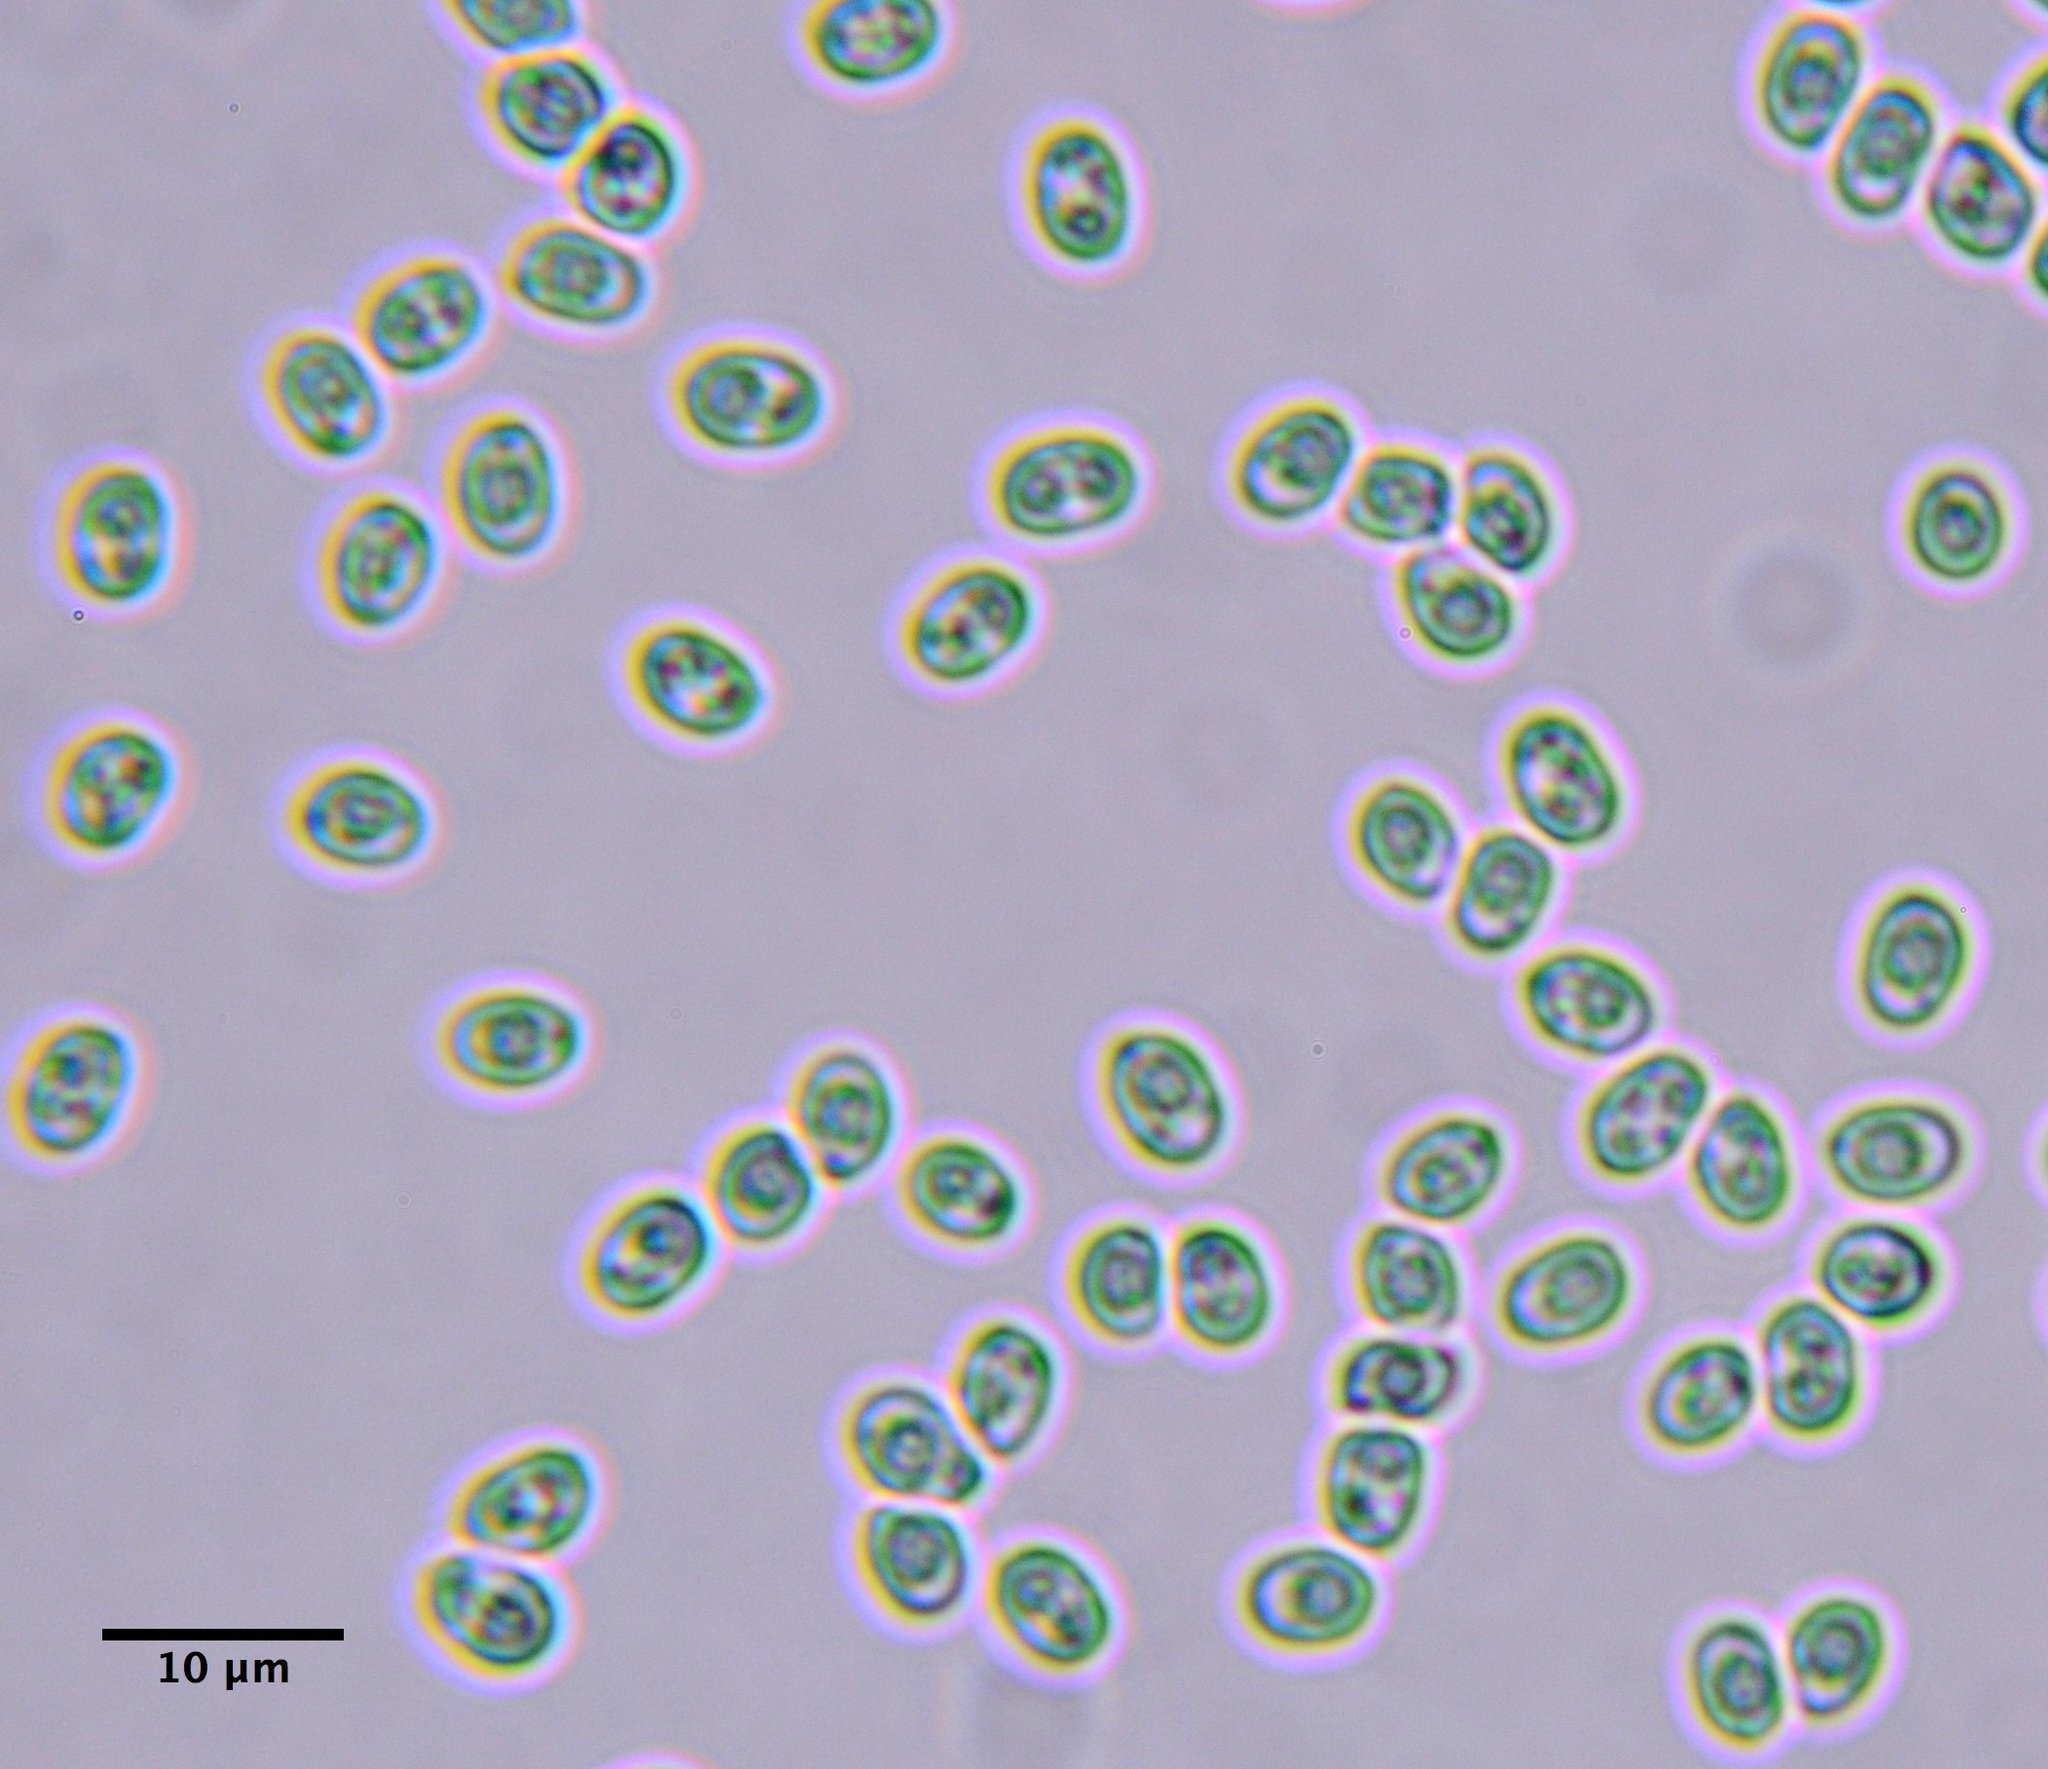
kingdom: Fungi
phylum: Basidiomycota
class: Agaricomycetes
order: Polyporales
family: Podoscyphaceae
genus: Abortiporus
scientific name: Abortiporus biennis
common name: Blushing rosette
